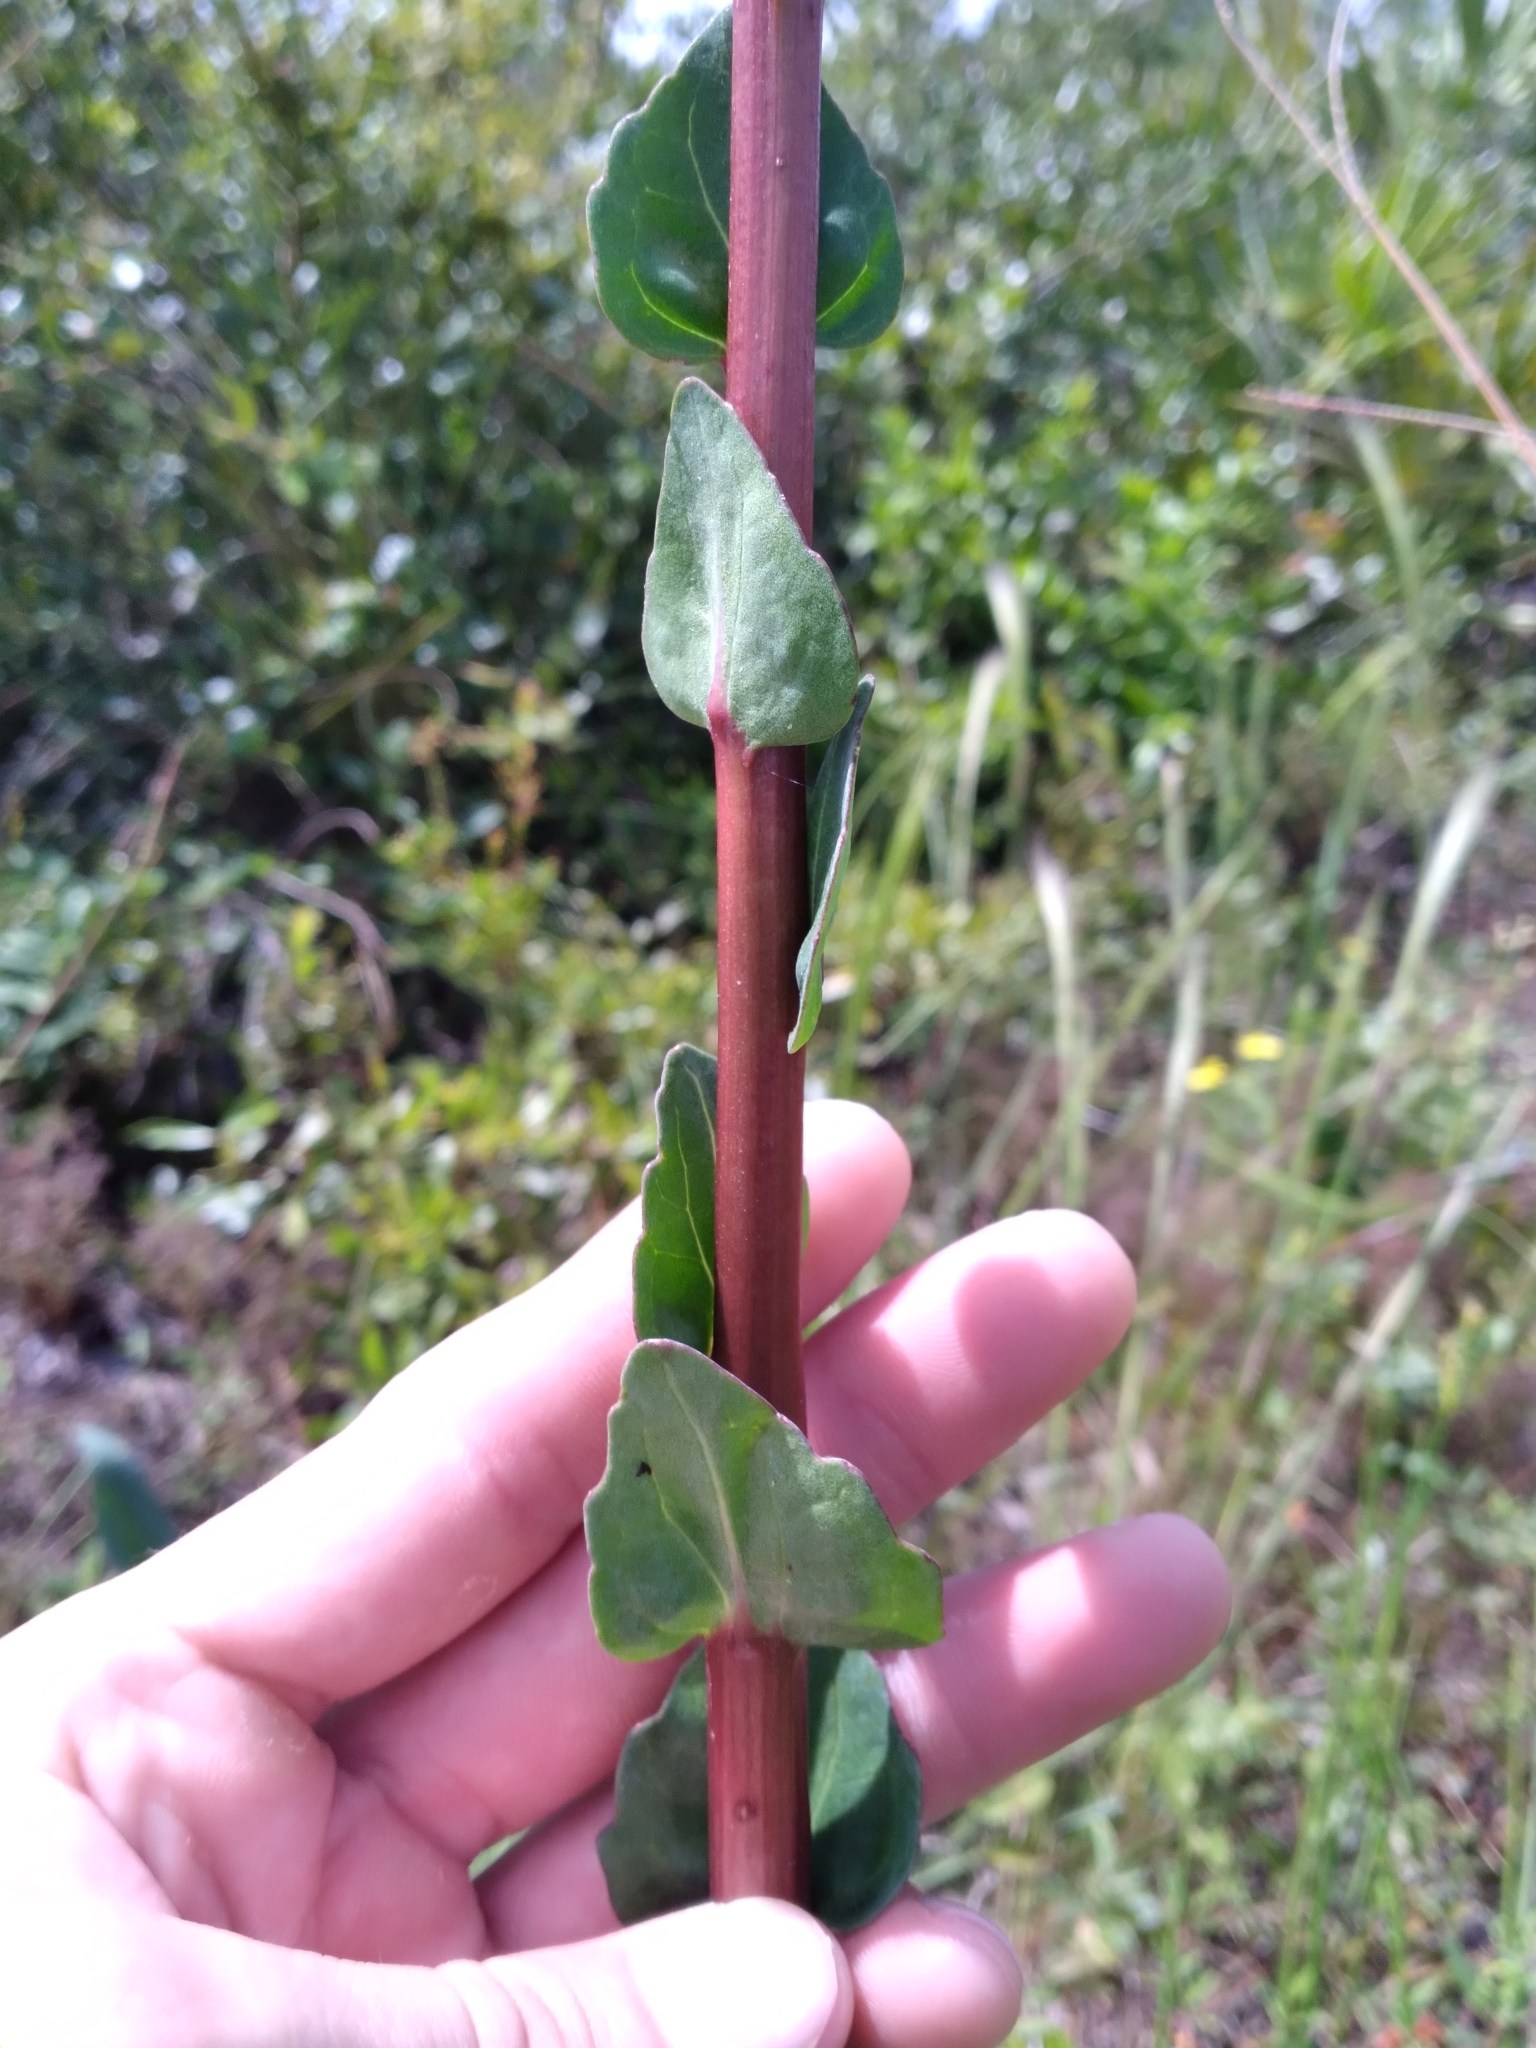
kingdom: Plantae
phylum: Tracheophyta
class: Magnoliopsida
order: Asterales
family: Asteraceae
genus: Carphephorus
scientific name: Carphephorus odoratissimus
